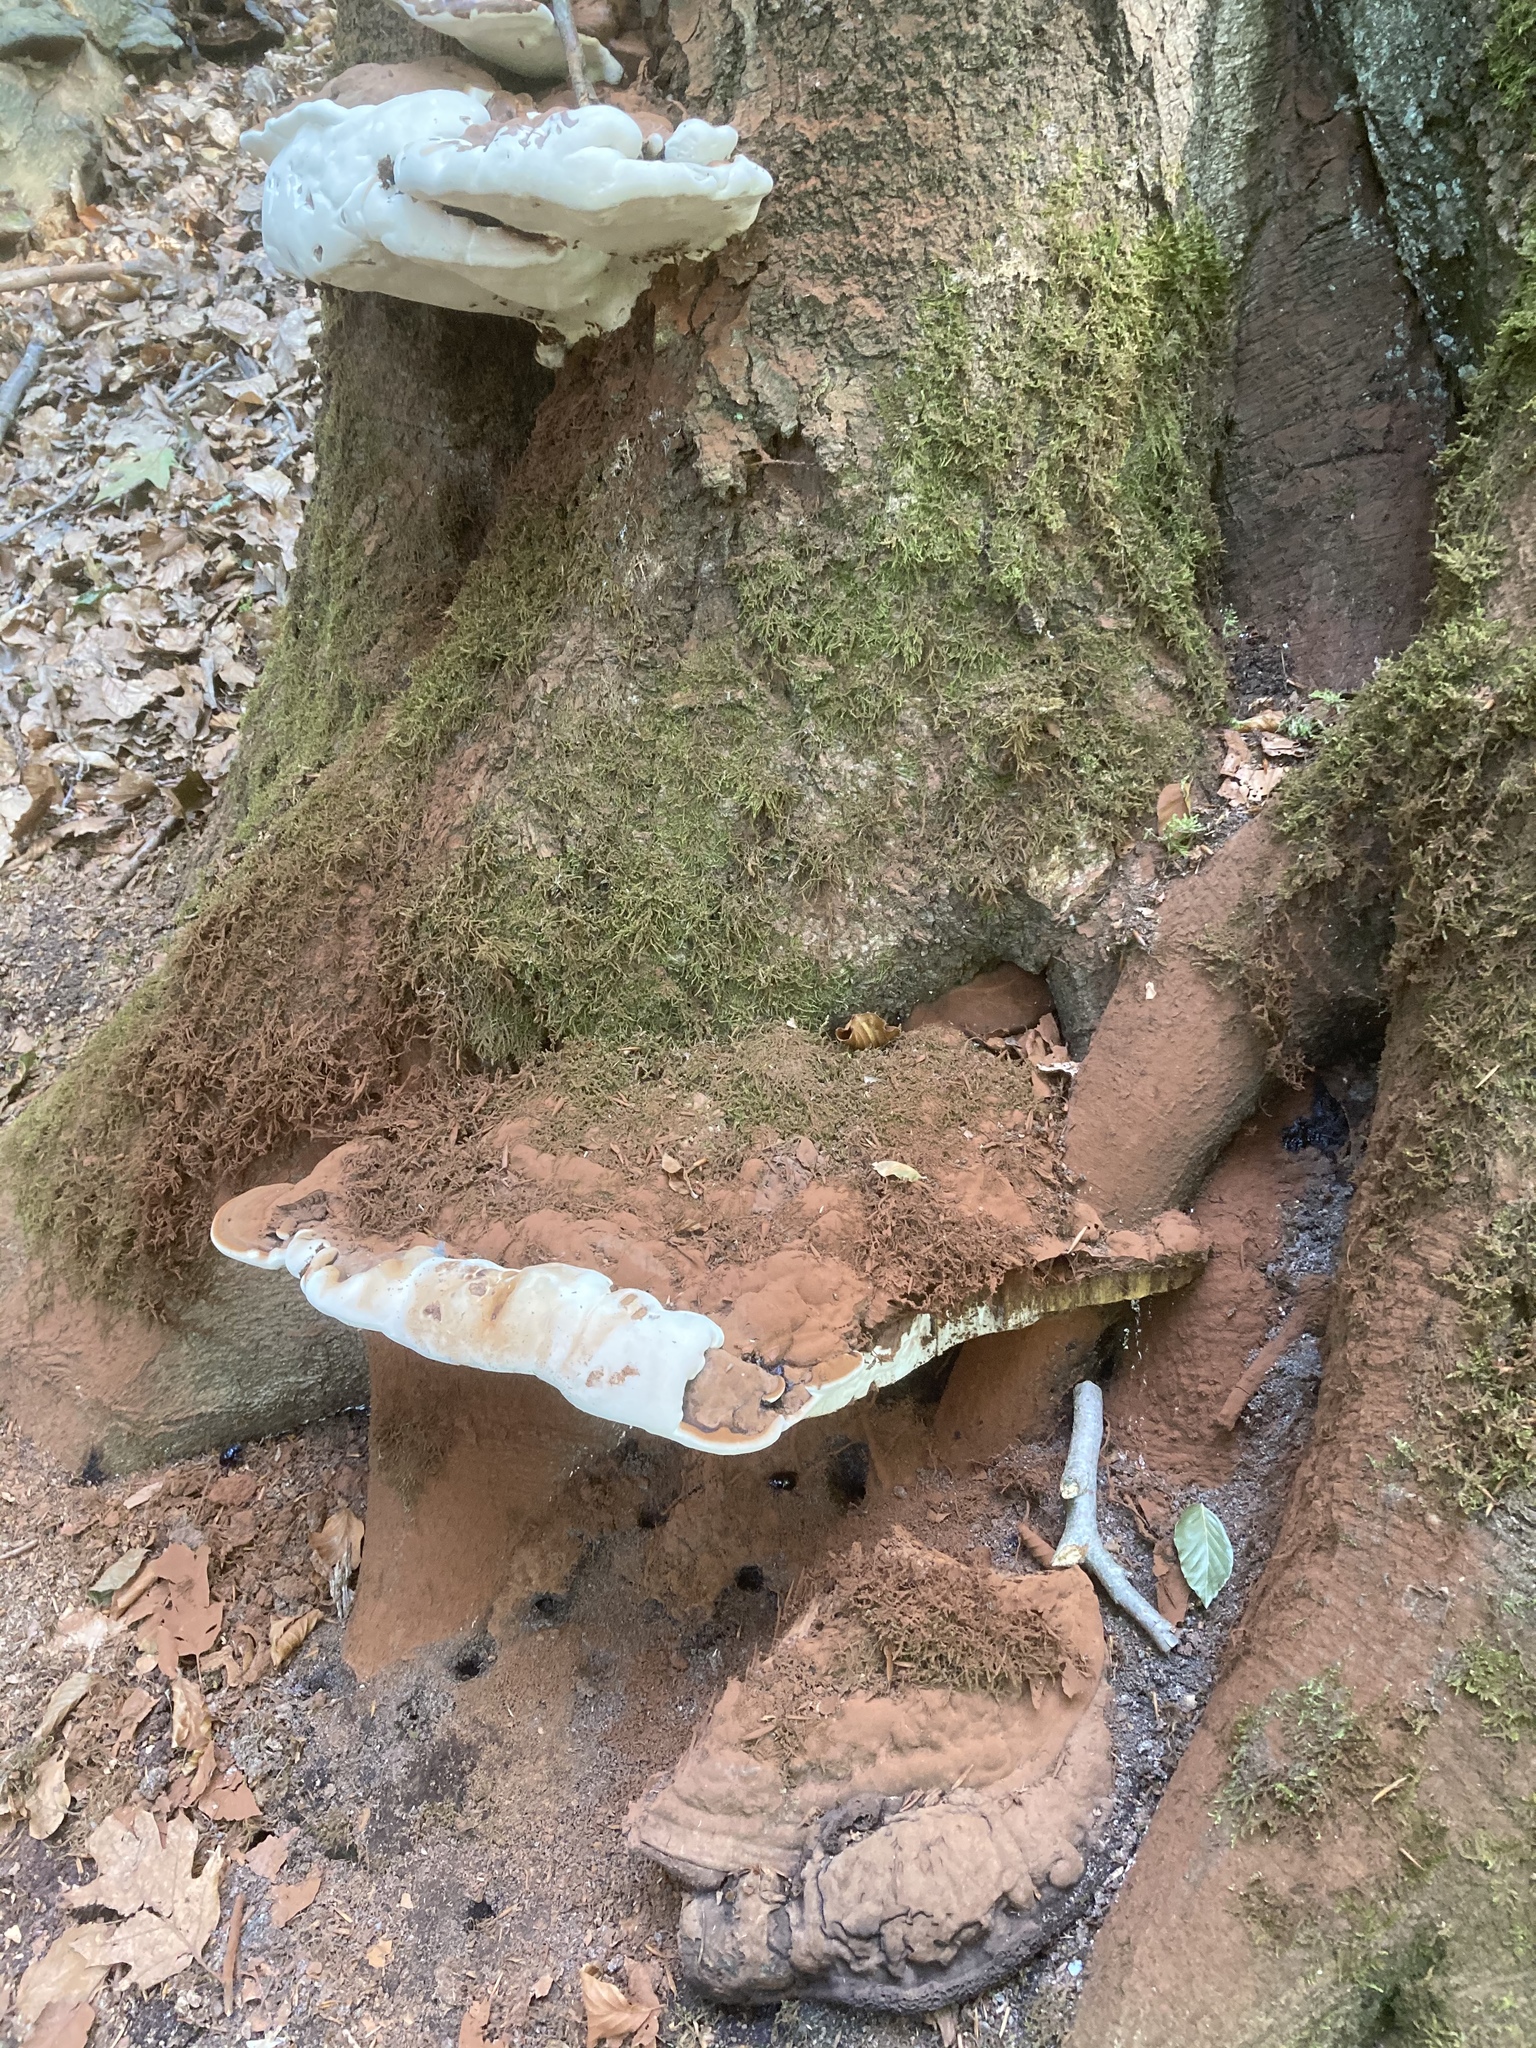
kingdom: Fungi
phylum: Basidiomycota
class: Agaricomycetes
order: Polyporales
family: Polyporaceae
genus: Ganoderma
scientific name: Ganoderma applanatum
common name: Artist's bracket
